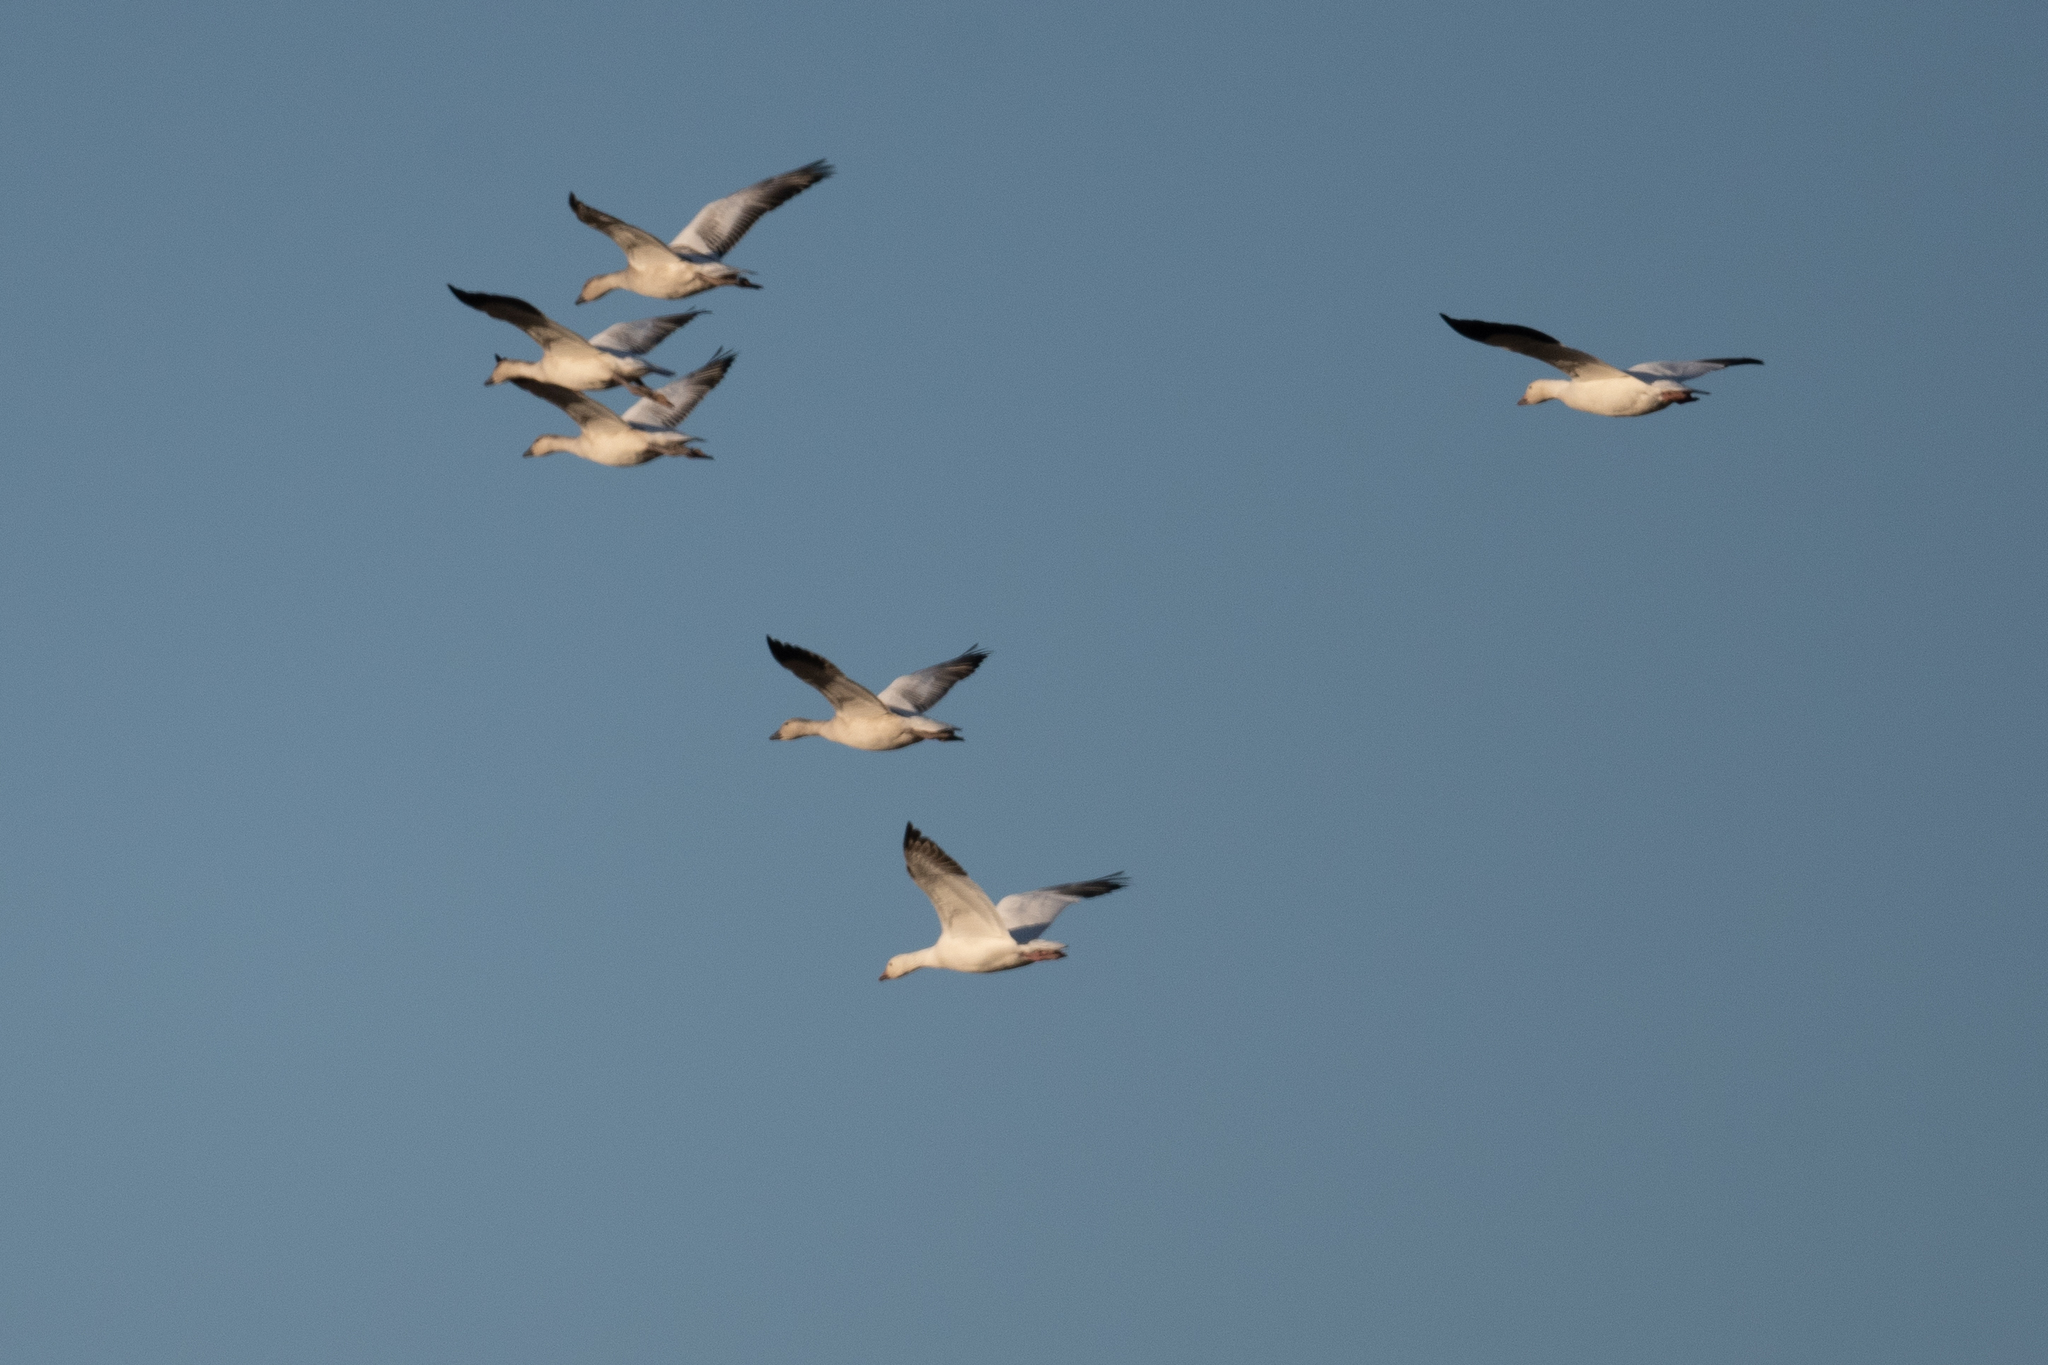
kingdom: Animalia
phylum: Chordata
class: Aves
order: Anseriformes
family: Anatidae
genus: Anser
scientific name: Anser caerulescens
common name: Snow goose
